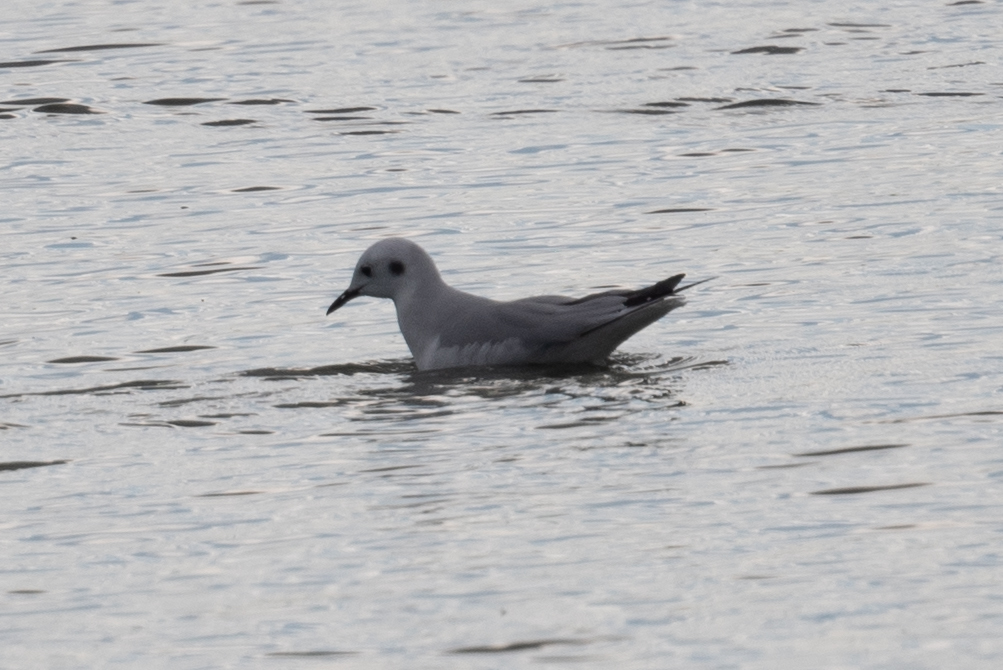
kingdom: Animalia
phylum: Chordata
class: Aves
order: Charadriiformes
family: Laridae
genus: Chroicocephalus
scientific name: Chroicocephalus philadelphia
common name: Bonaparte's gull
